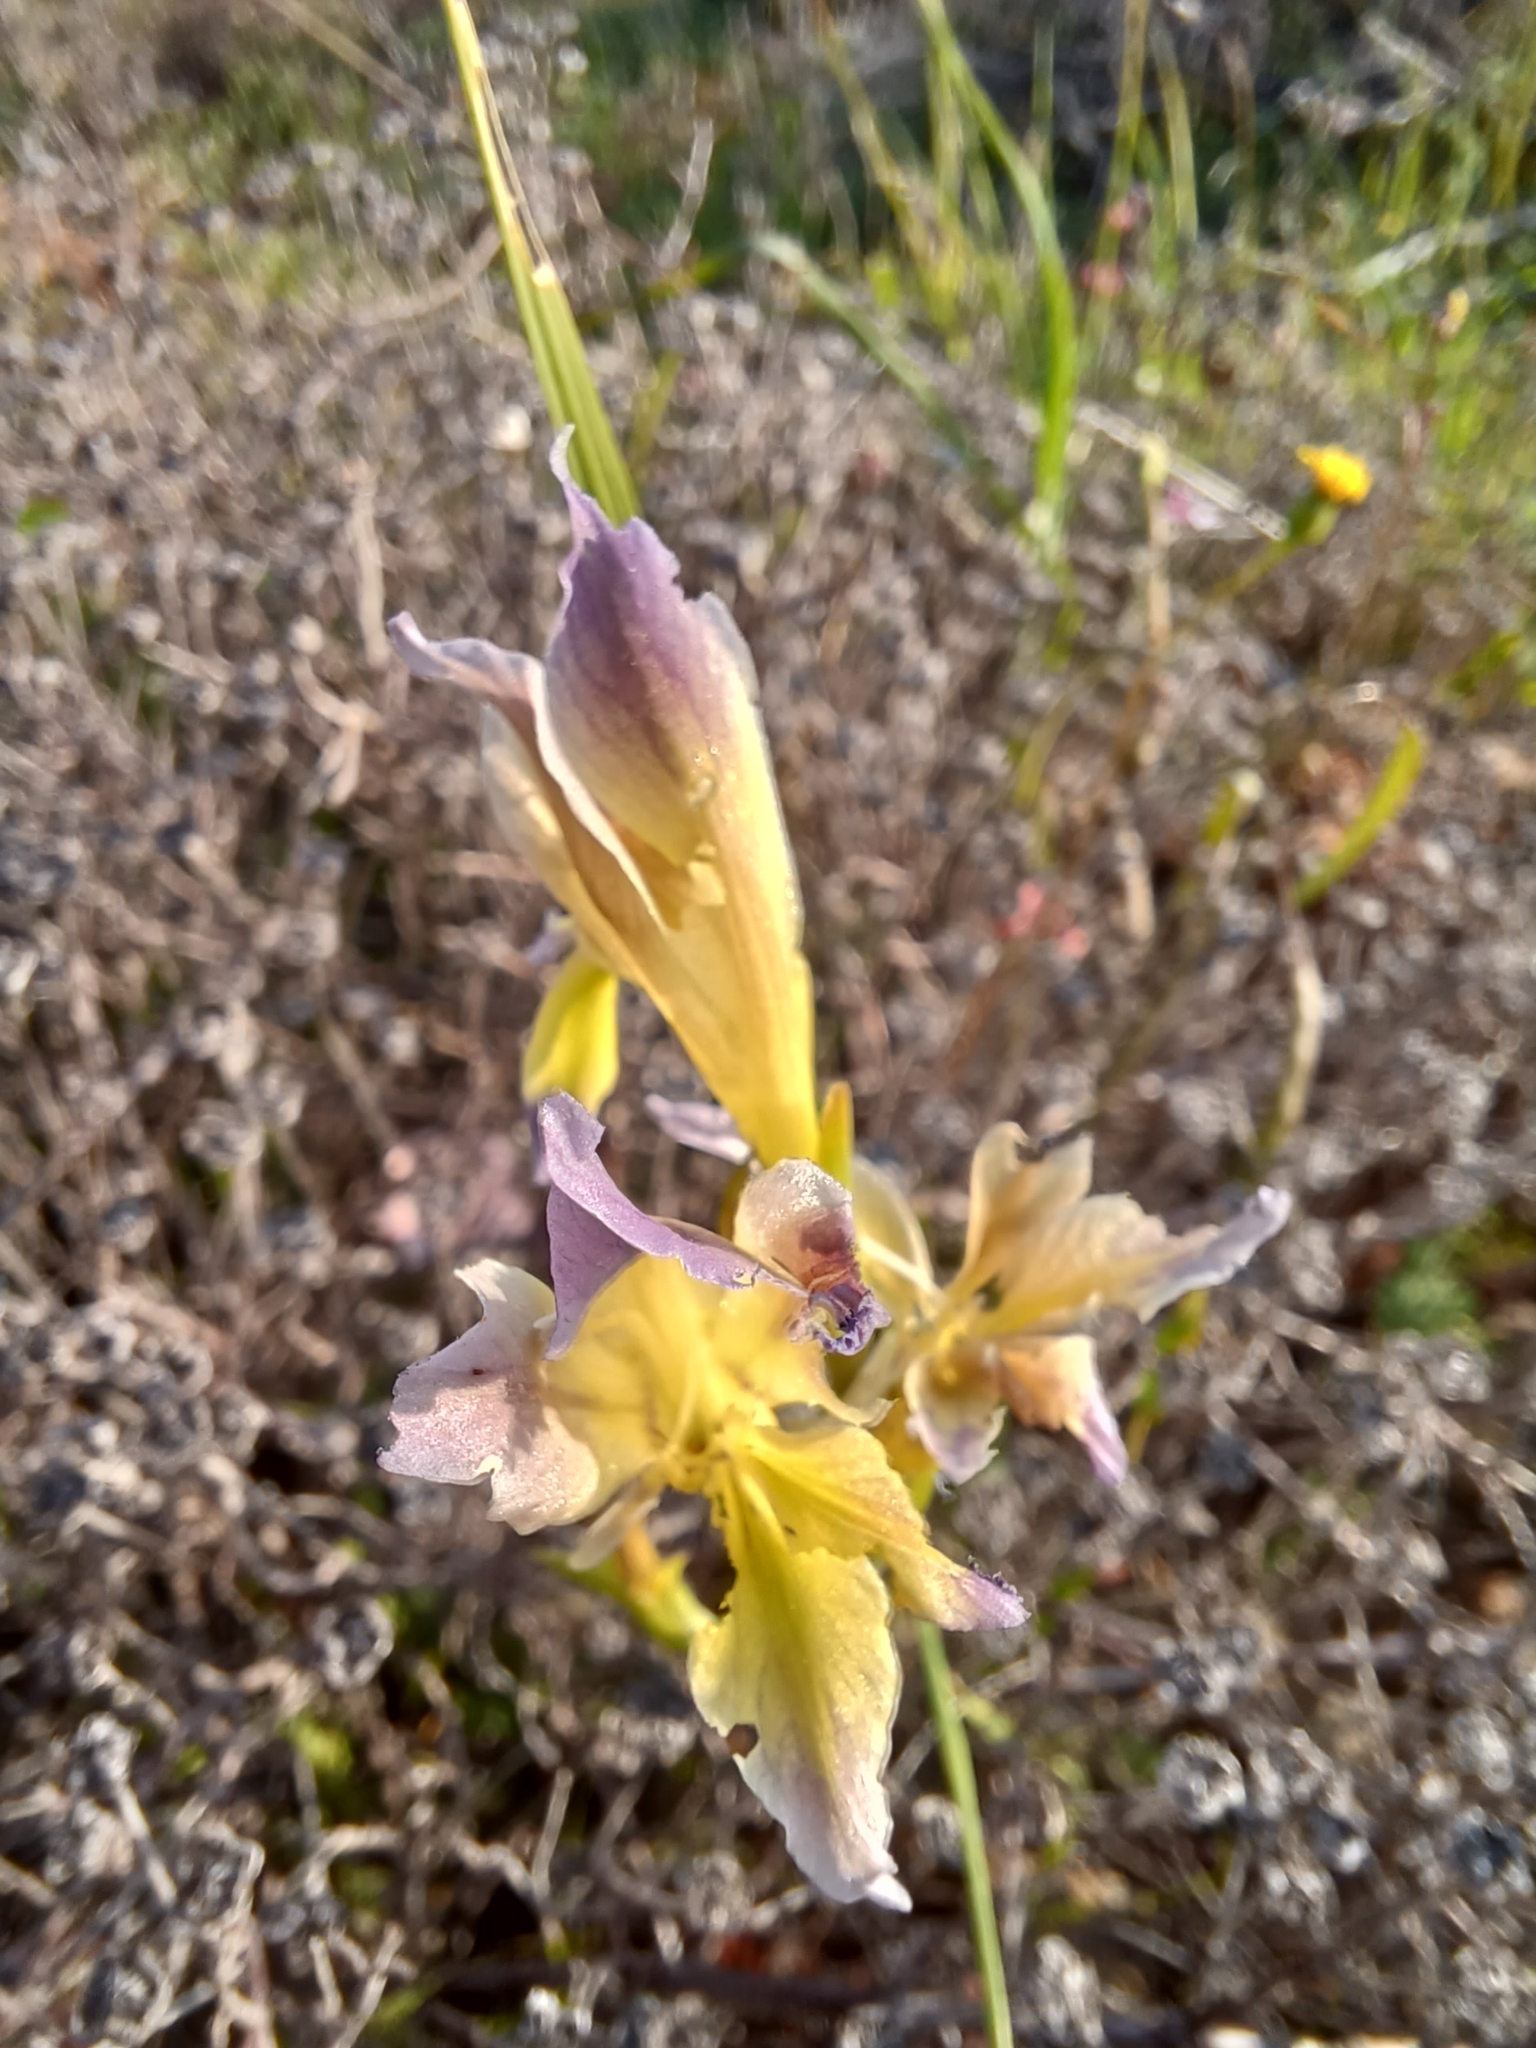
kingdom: Plantae
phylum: Tracheophyta
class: Liliopsida
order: Asparagales
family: Iridaceae
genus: Gladiolus
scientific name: Gladiolus venustus
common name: Purple kalkoentjie
